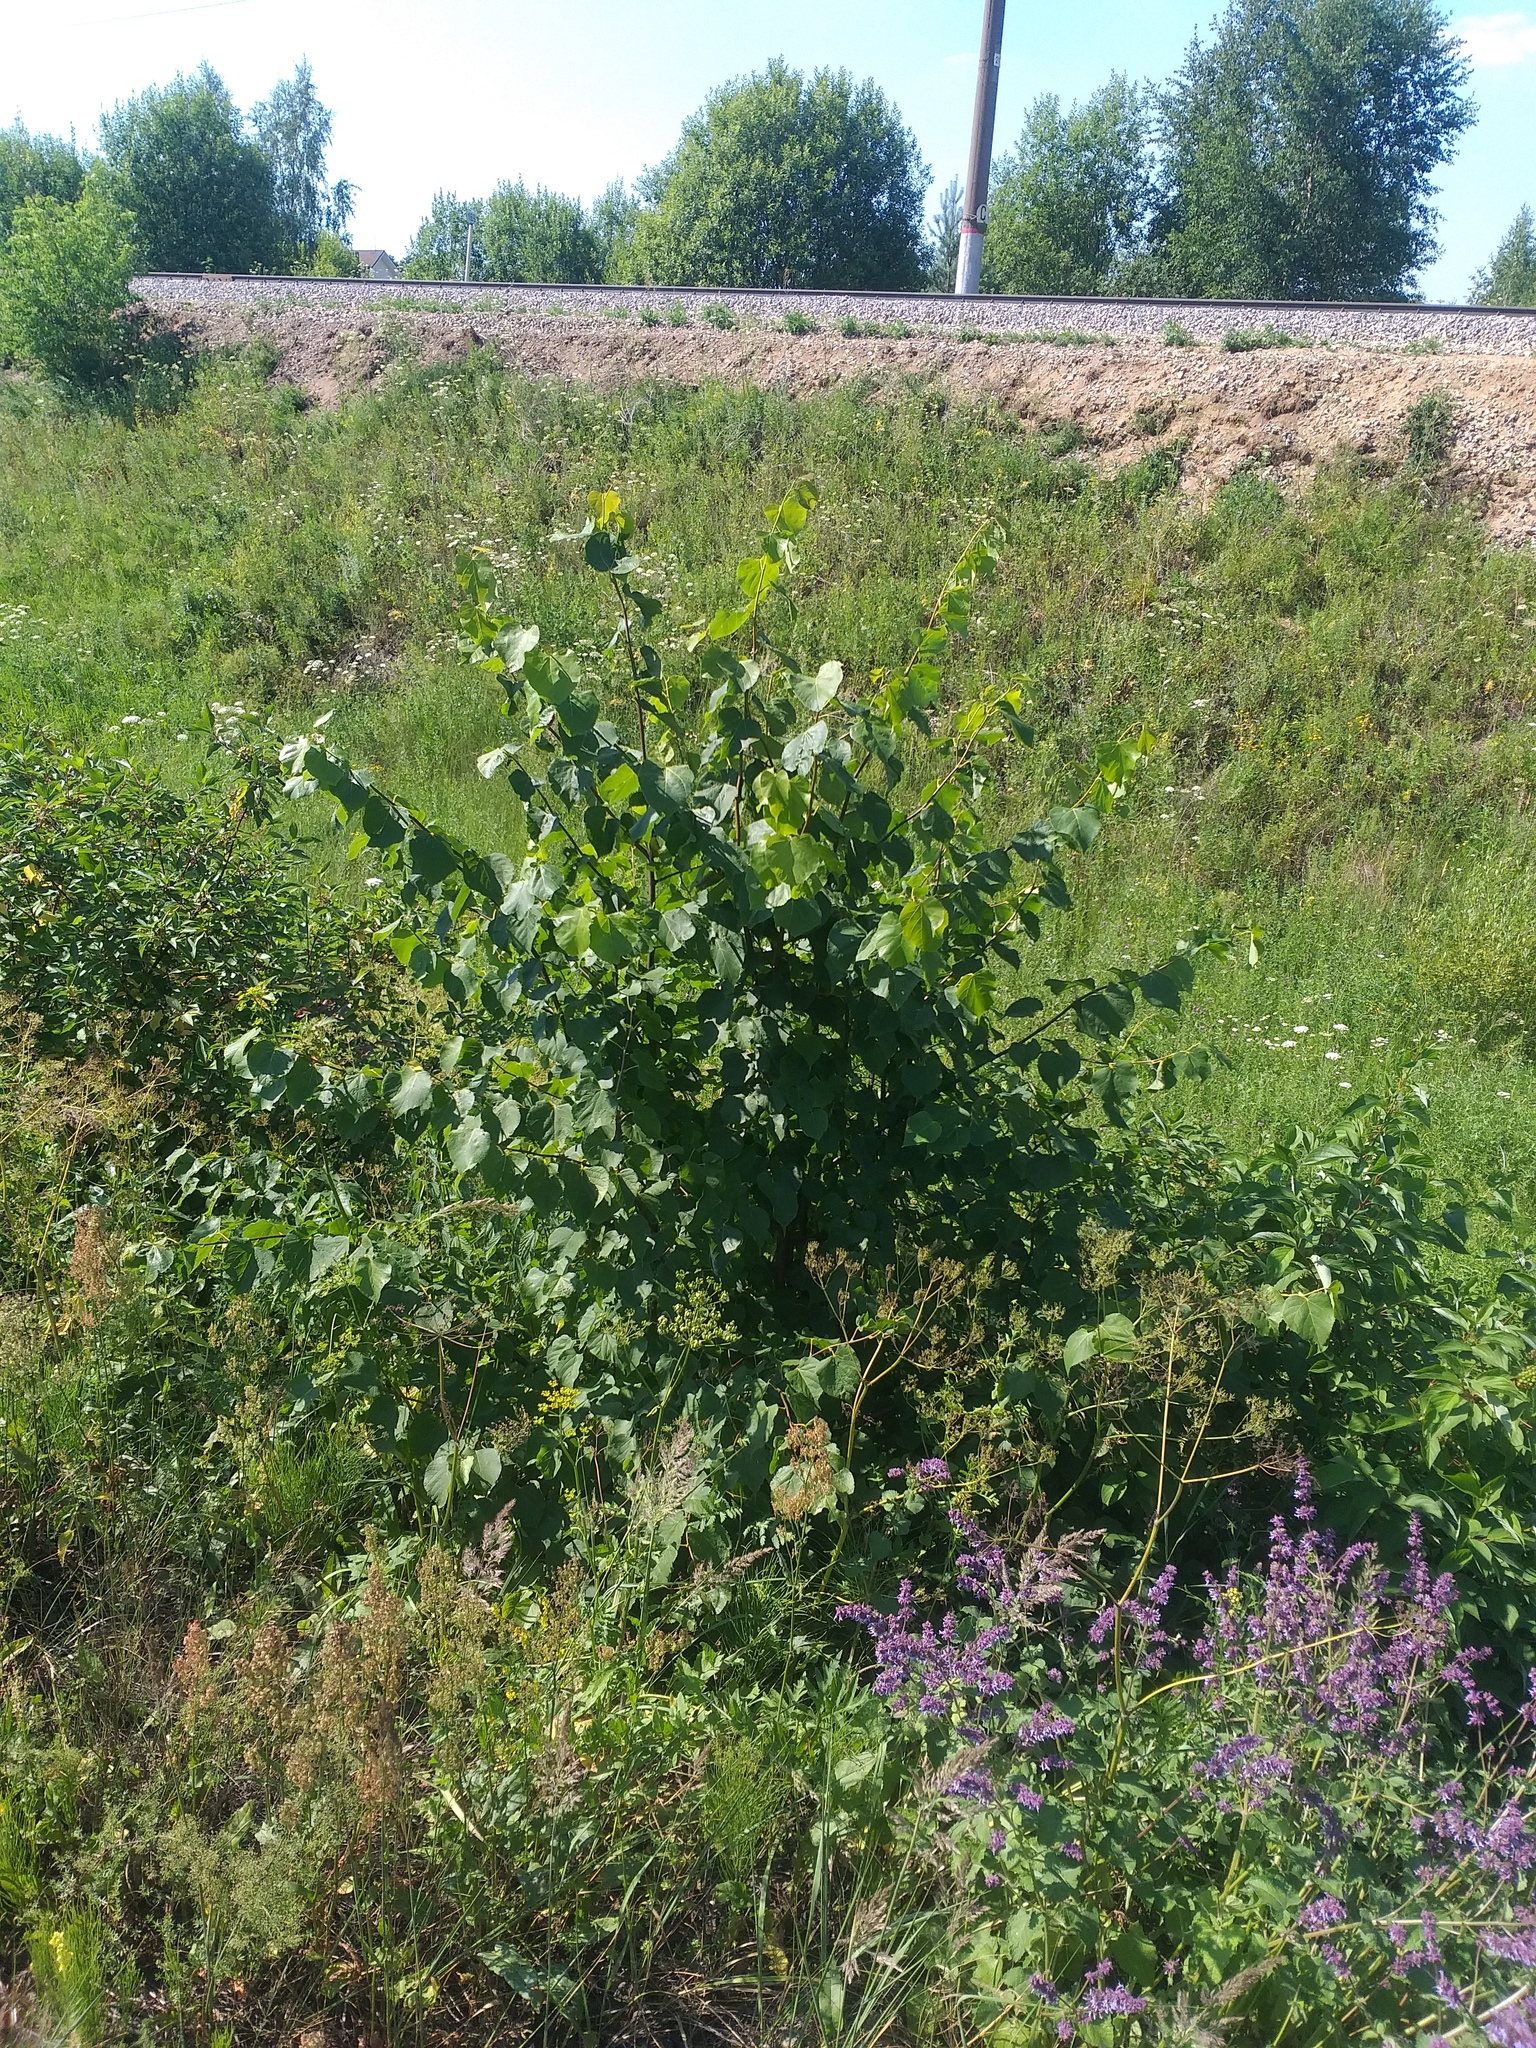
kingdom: Plantae
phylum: Tracheophyta
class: Magnoliopsida
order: Malvales
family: Malvaceae
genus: Tilia
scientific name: Tilia cordata
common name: Small-leaved lime
